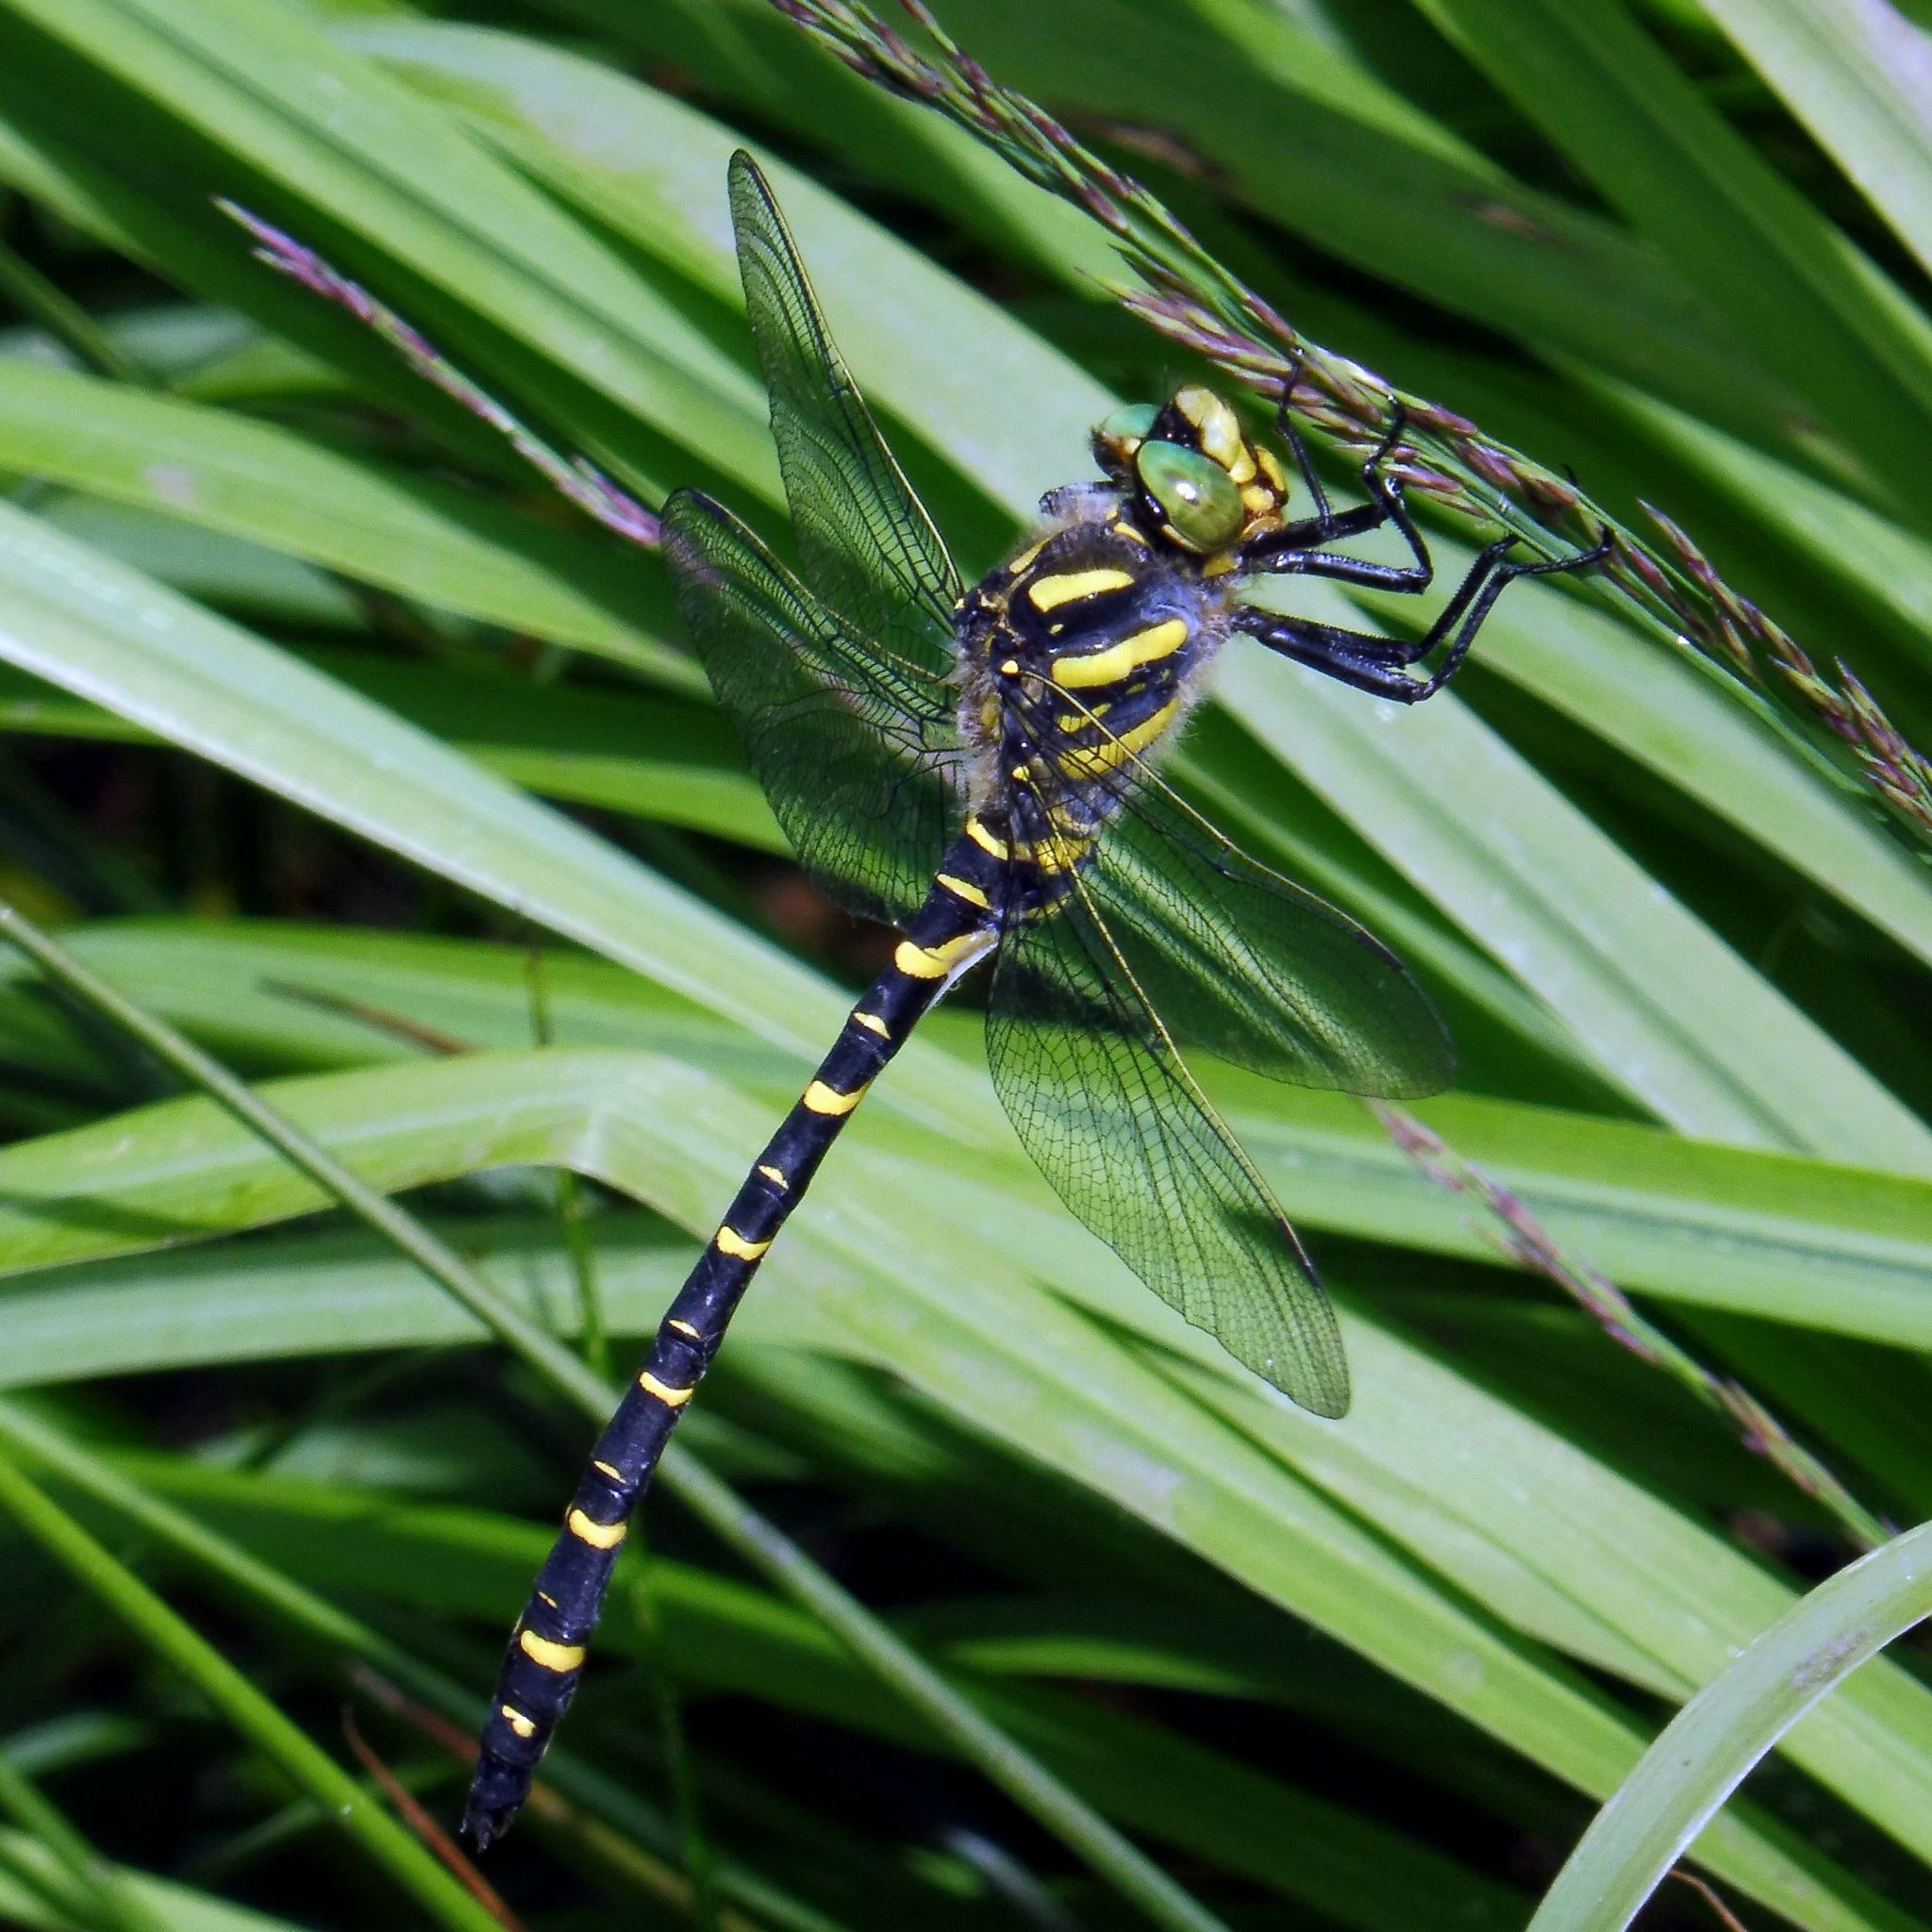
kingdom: Animalia
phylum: Arthropoda
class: Insecta
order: Odonata
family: Cordulegastridae
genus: Cordulegaster
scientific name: Cordulegaster boltonii
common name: Golden-ringed dragonfly
